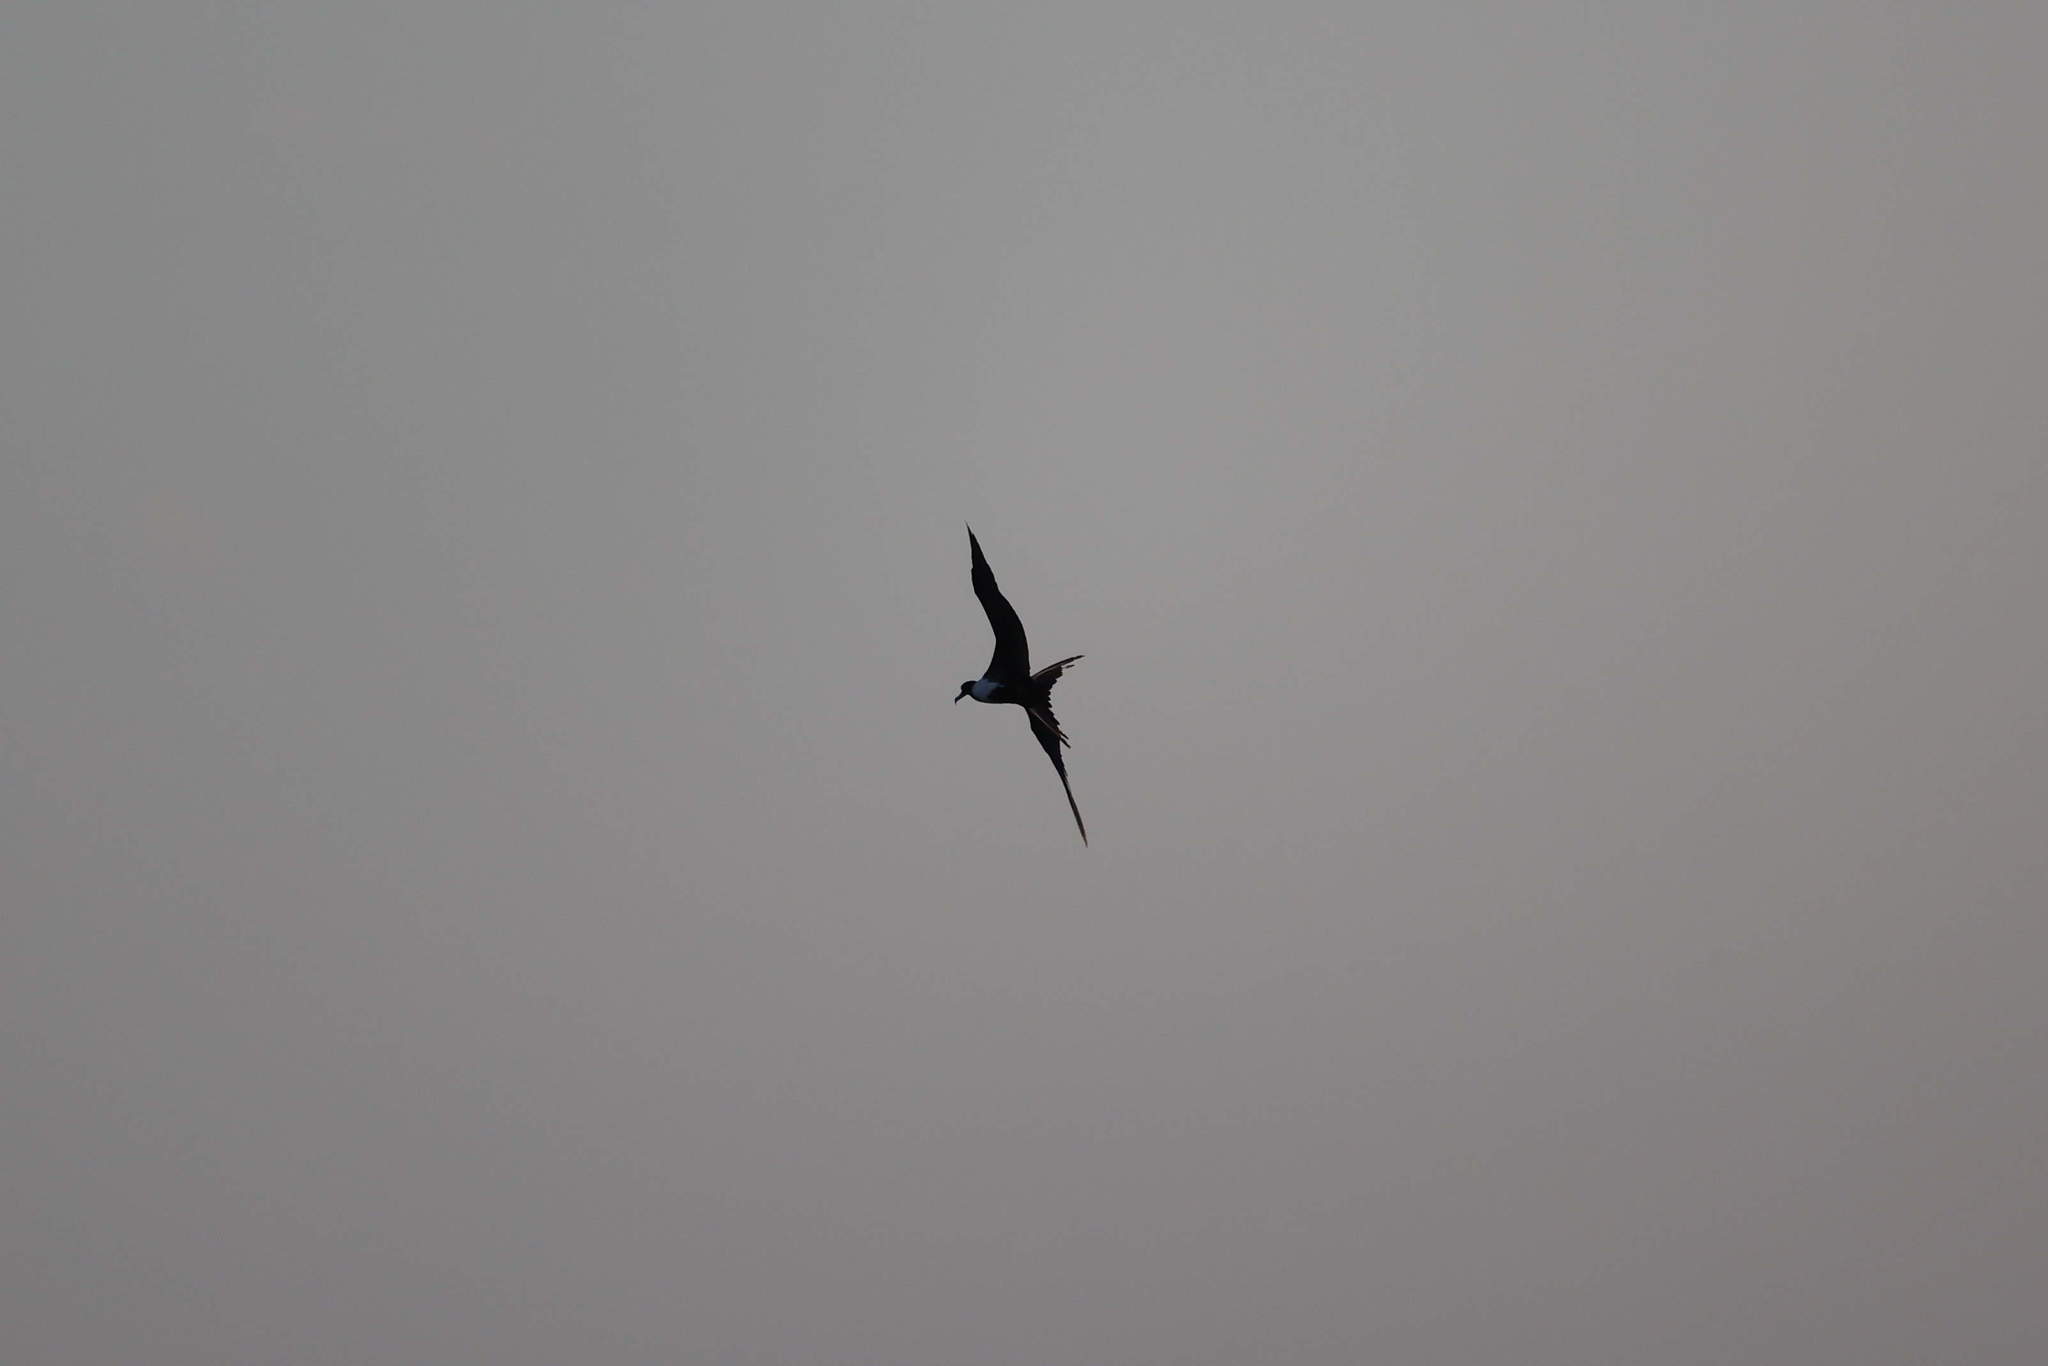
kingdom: Animalia
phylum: Chordata
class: Aves
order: Suliformes
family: Fregatidae
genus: Fregata
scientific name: Fregata magnificens
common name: Magnificent frigatebird
